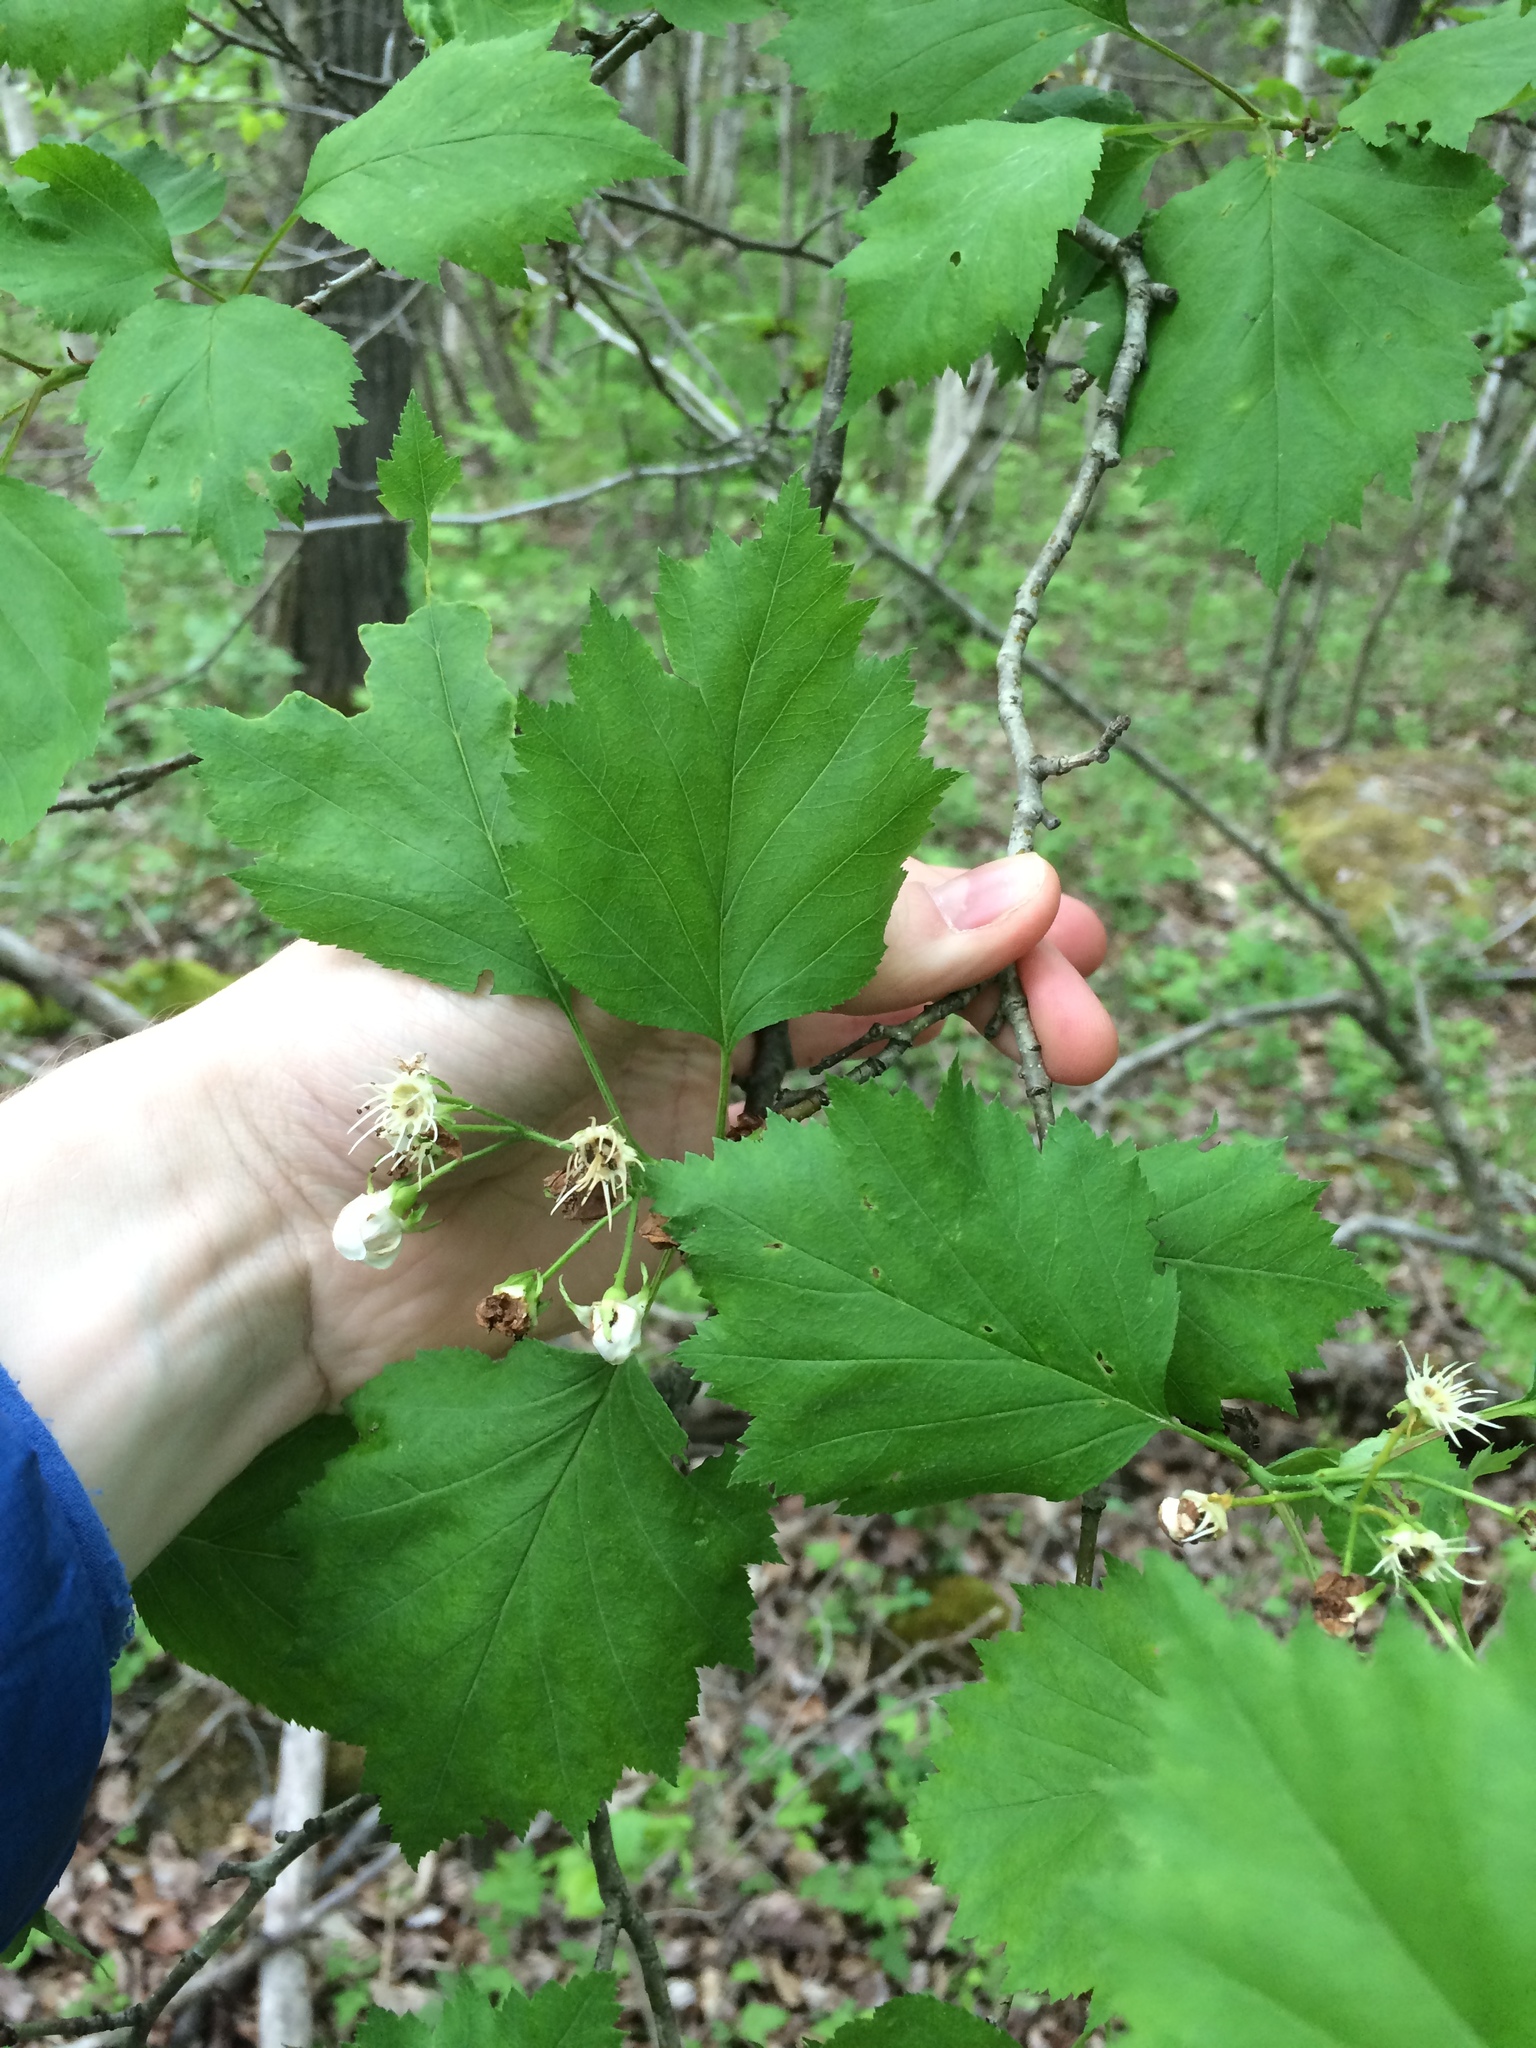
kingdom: Plantae
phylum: Tracheophyta
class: Magnoliopsida
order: Rosales
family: Rosaceae
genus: Crataegus
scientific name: Crataegus schuettei
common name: Schuette's hawthorn
